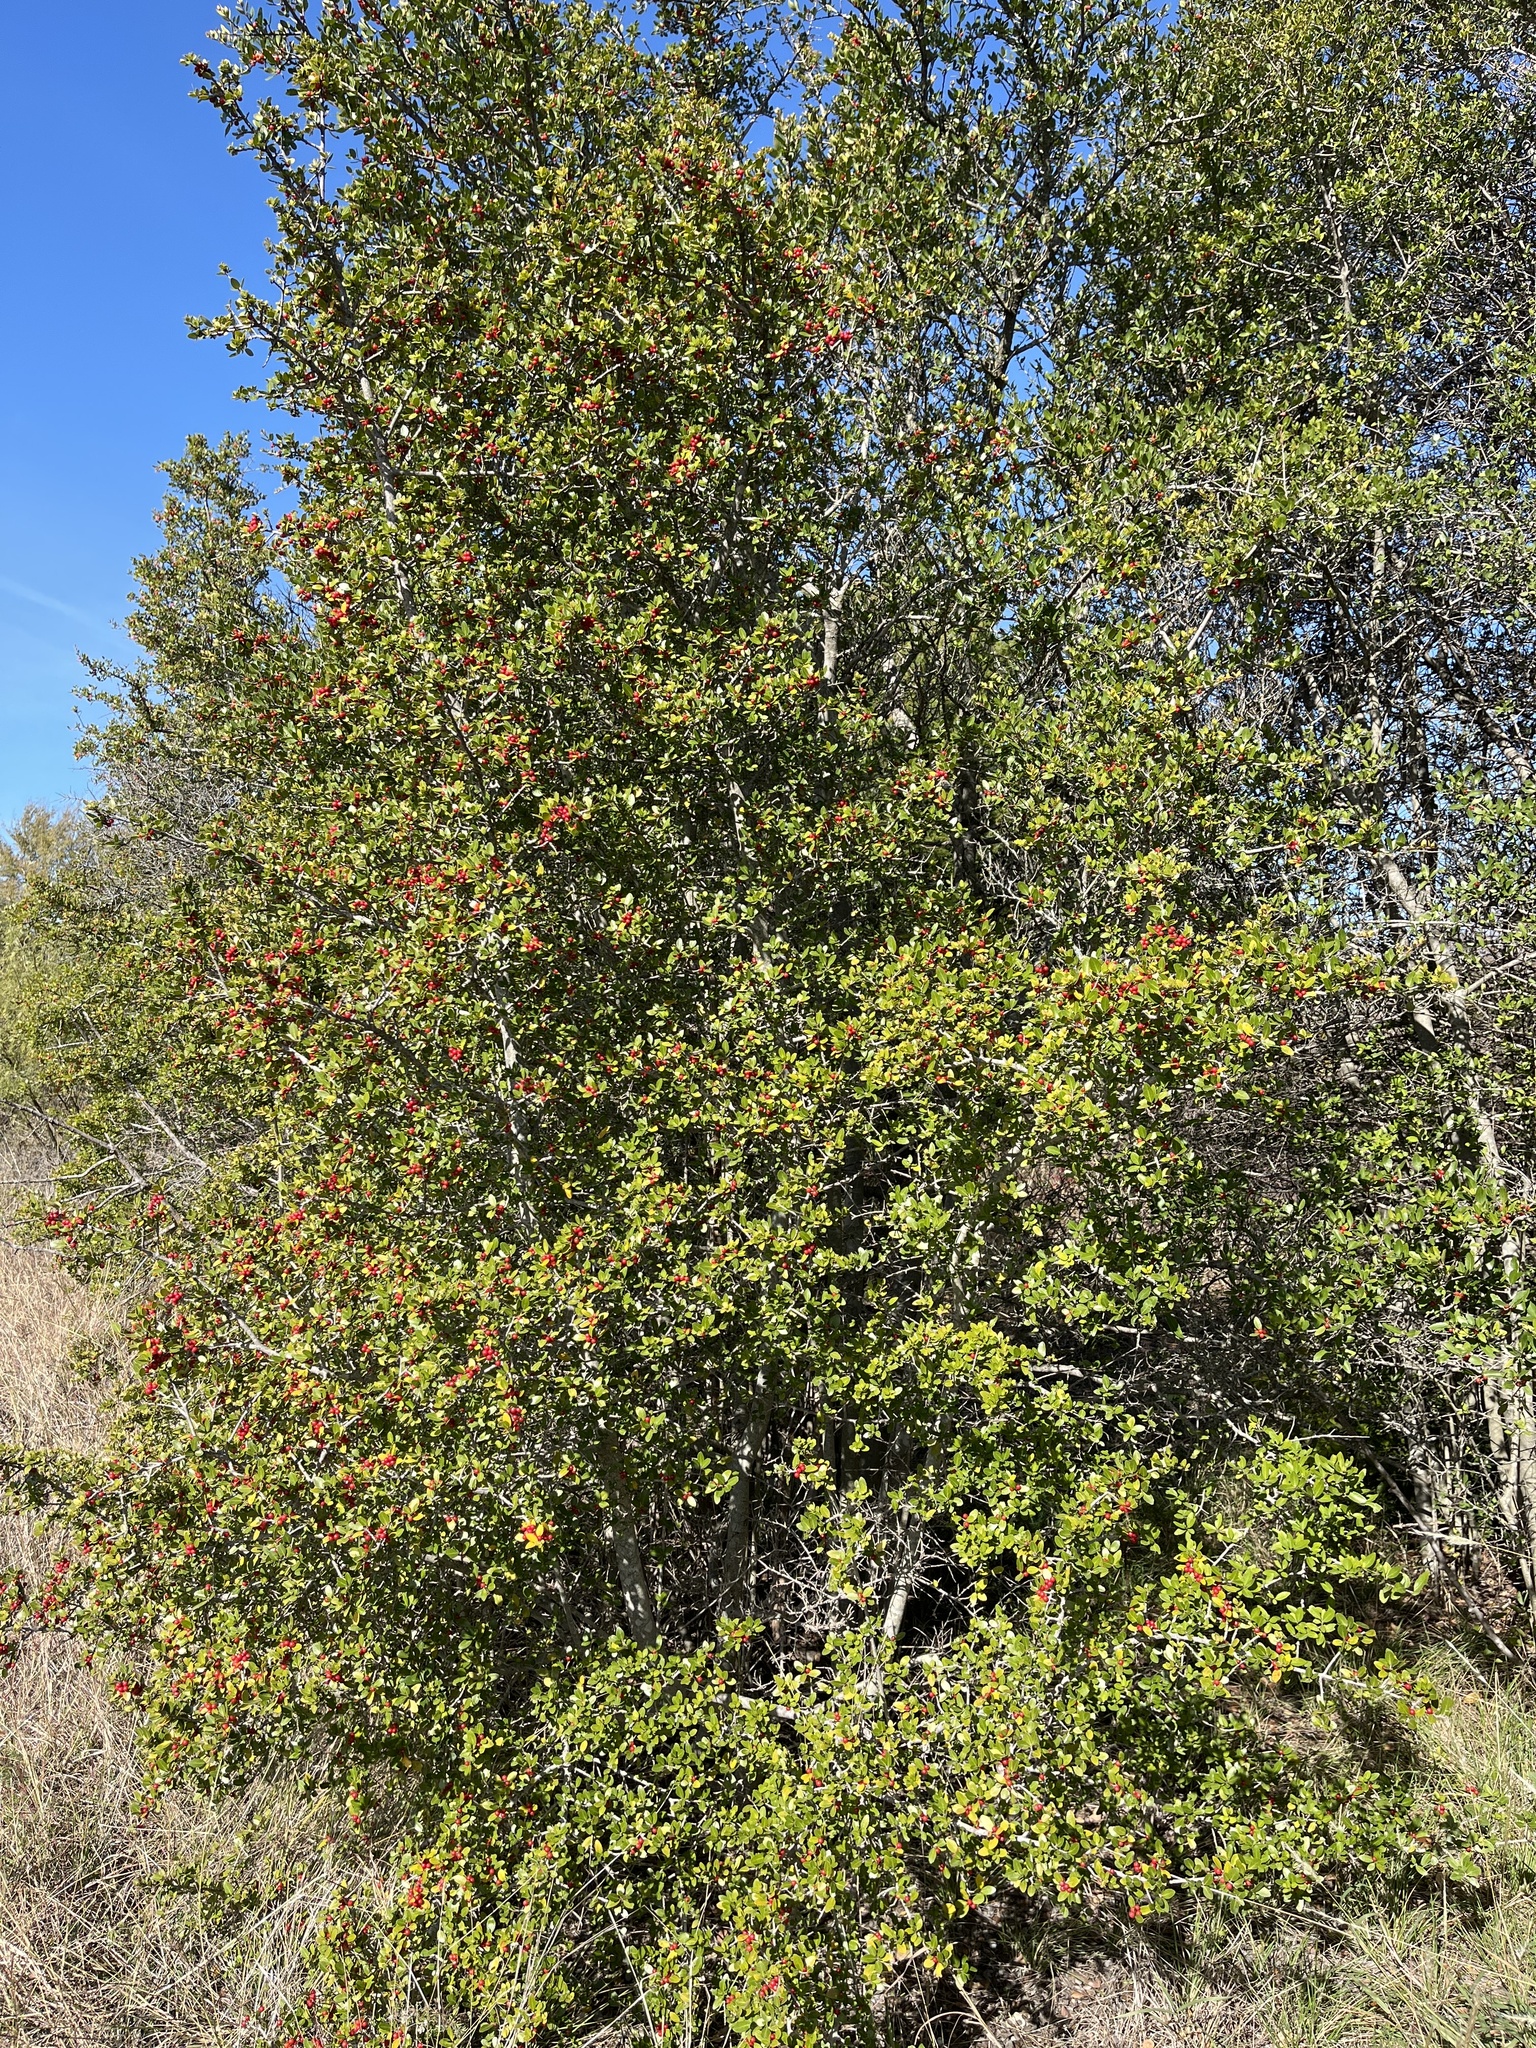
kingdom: Plantae
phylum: Tracheophyta
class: Magnoliopsida
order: Aquifoliales
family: Aquifoliaceae
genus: Ilex
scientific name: Ilex vomitoria
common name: Yaupon holly
